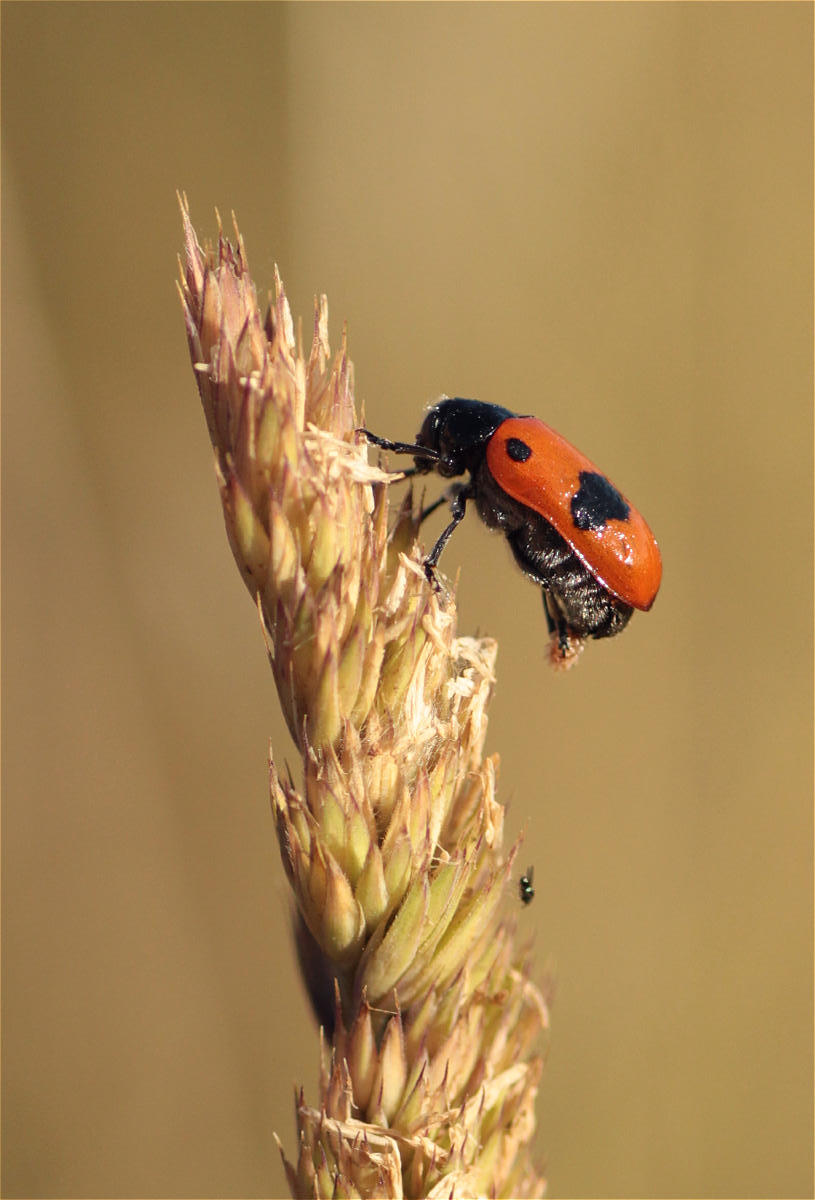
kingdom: Animalia
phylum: Arthropoda
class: Insecta
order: Coleoptera
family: Chrysomelidae
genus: Clytra
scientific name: Clytra laeviuscula
